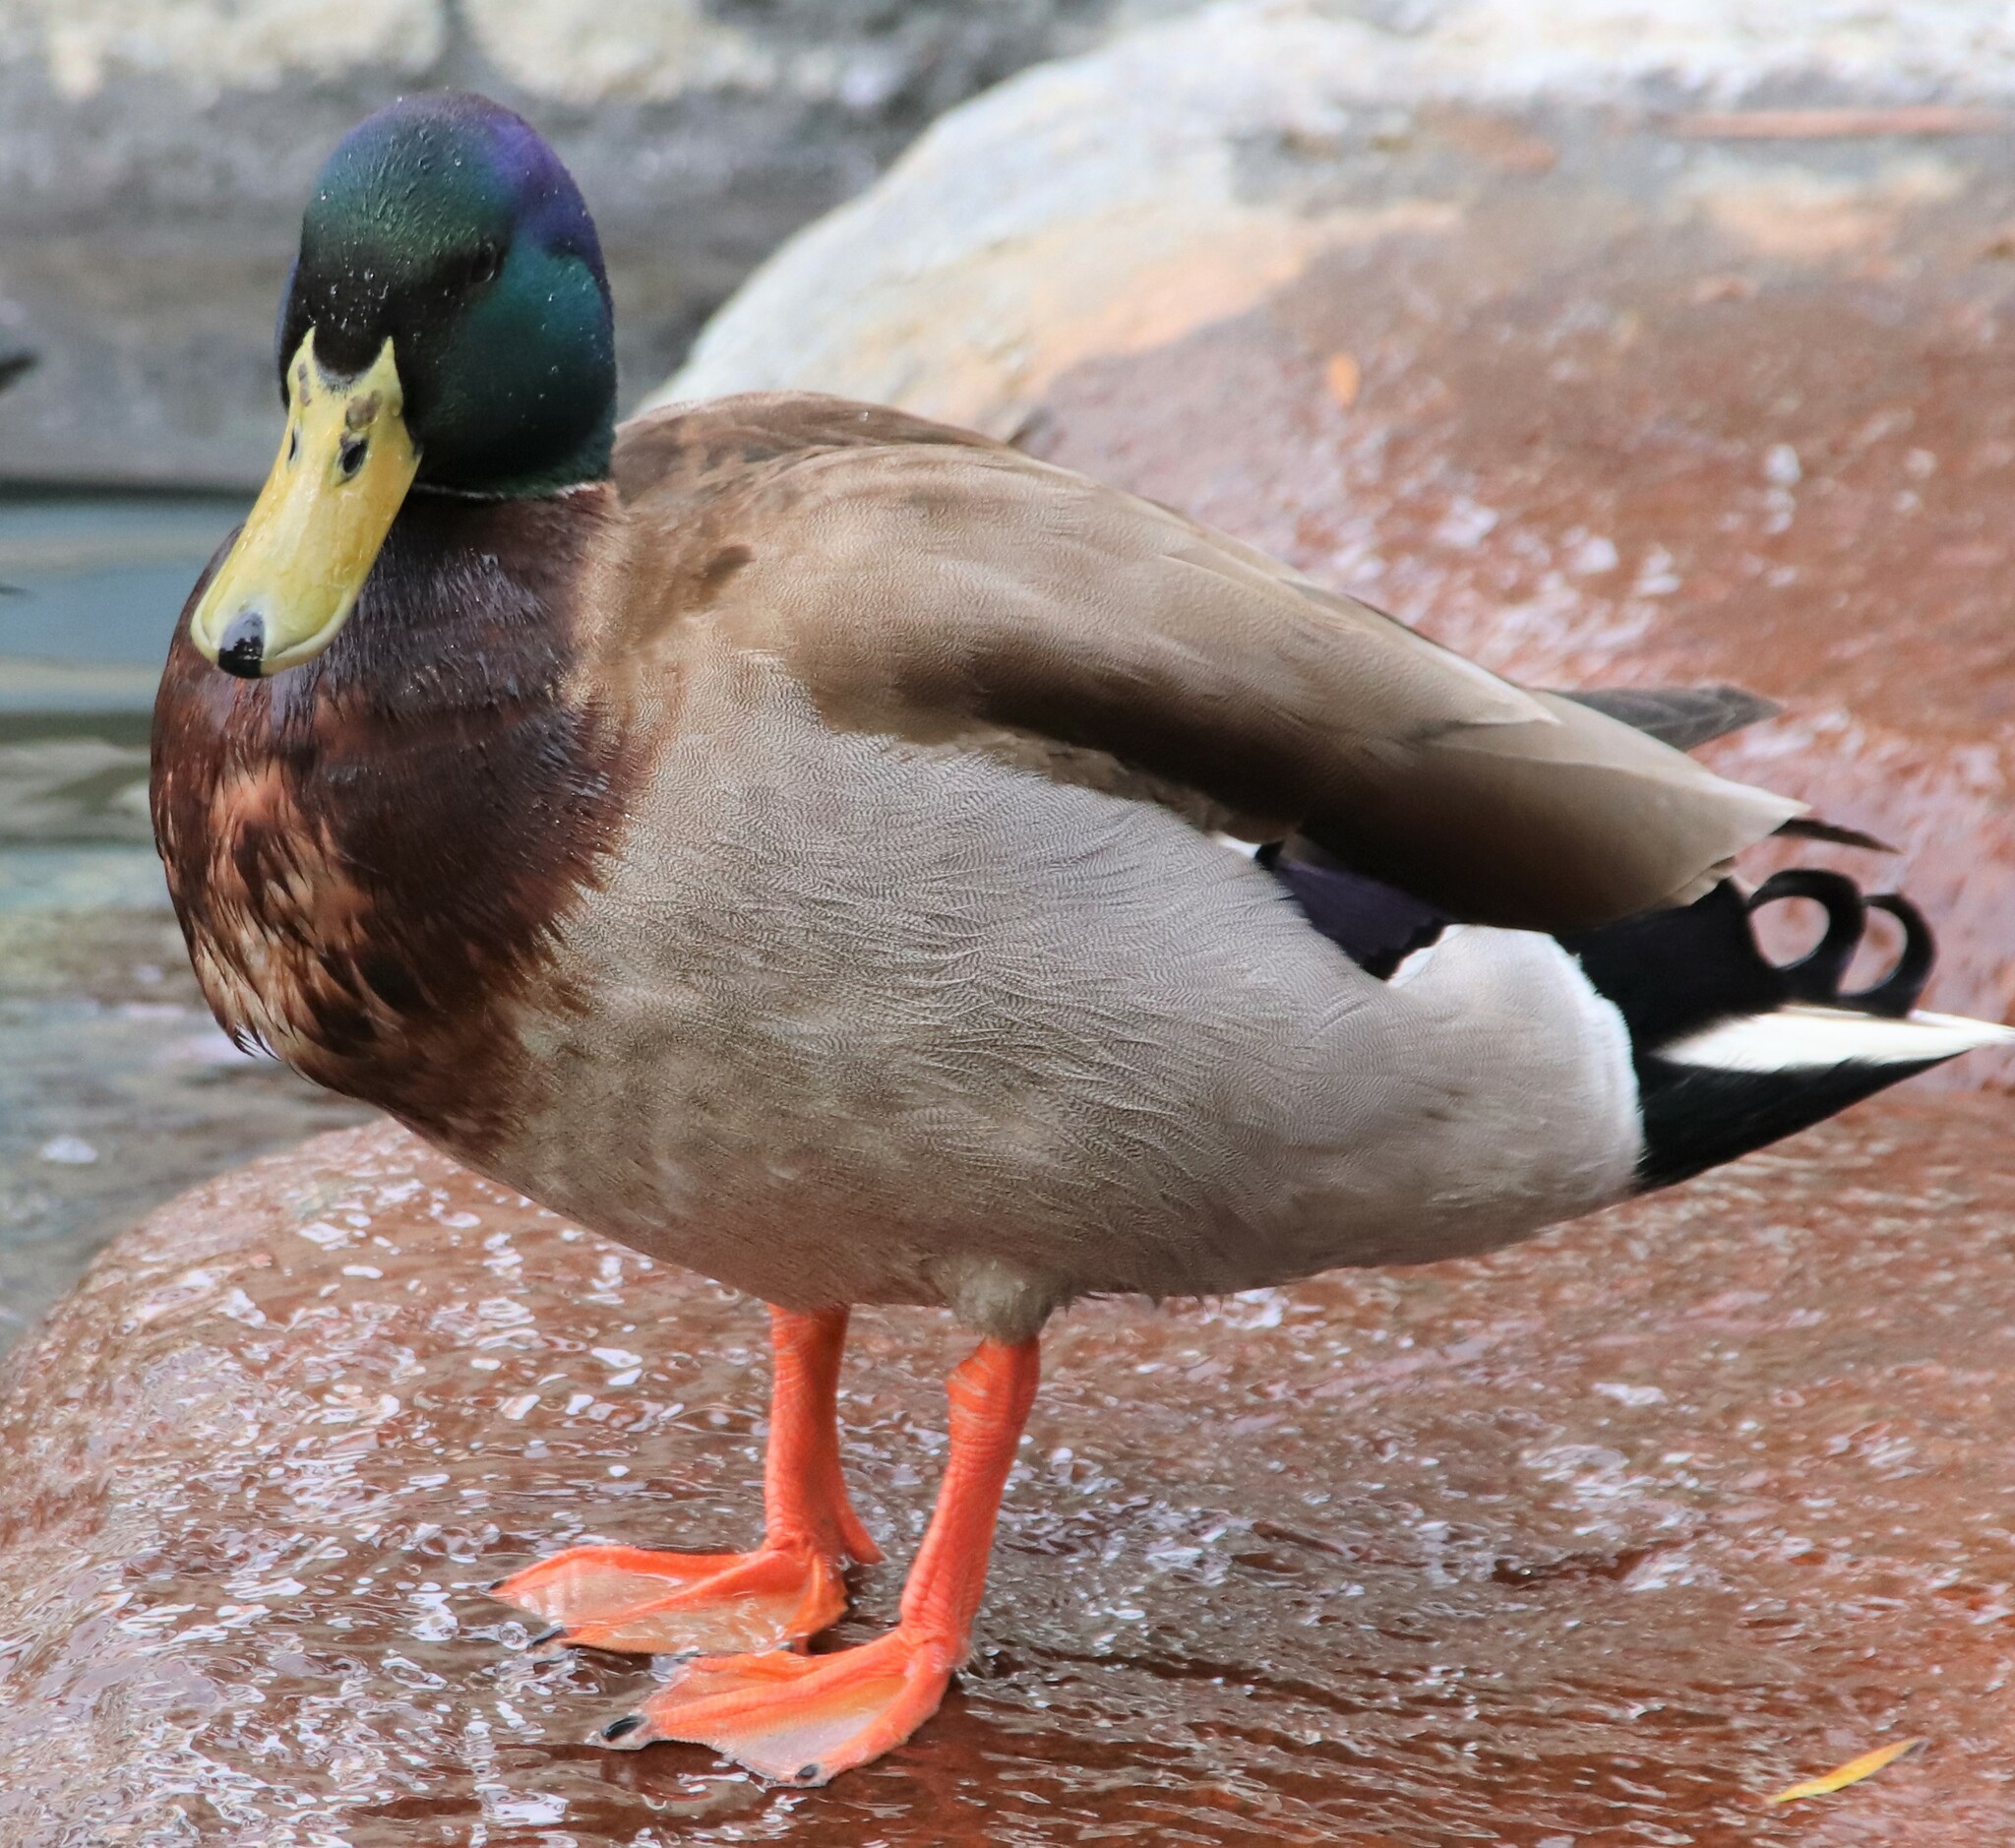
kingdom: Animalia
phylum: Chordata
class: Aves
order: Anseriformes
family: Anatidae
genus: Anas
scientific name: Anas platyrhynchos
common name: Mallard
